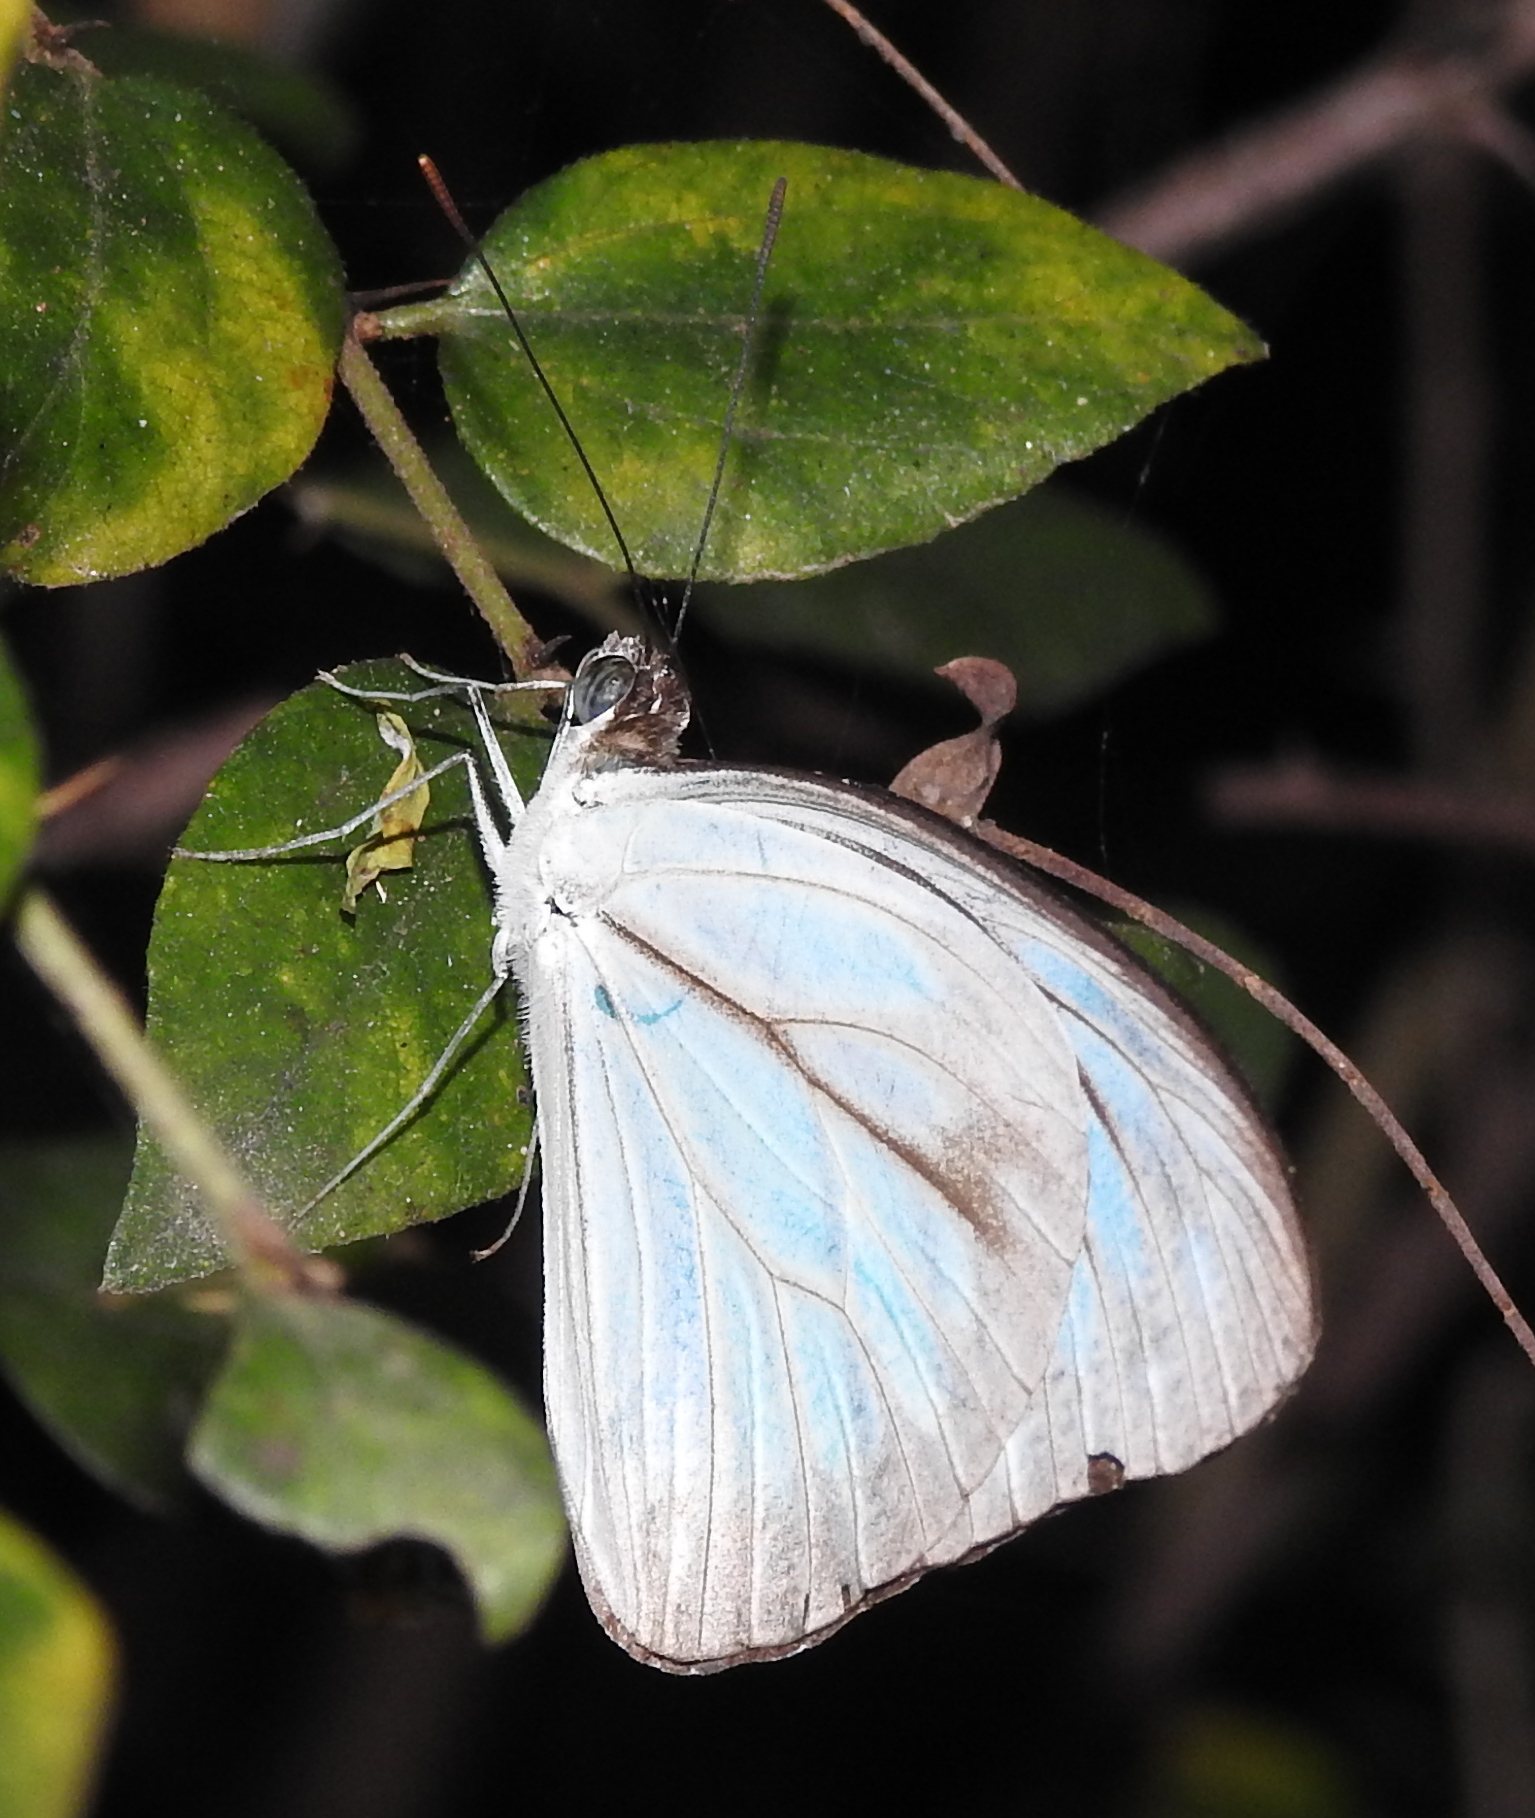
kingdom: Animalia
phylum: Arthropoda
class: Insecta
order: Lepidoptera
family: Pieridae
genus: Pareronia
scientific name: Pareronia hippia
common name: Indian wanderer
